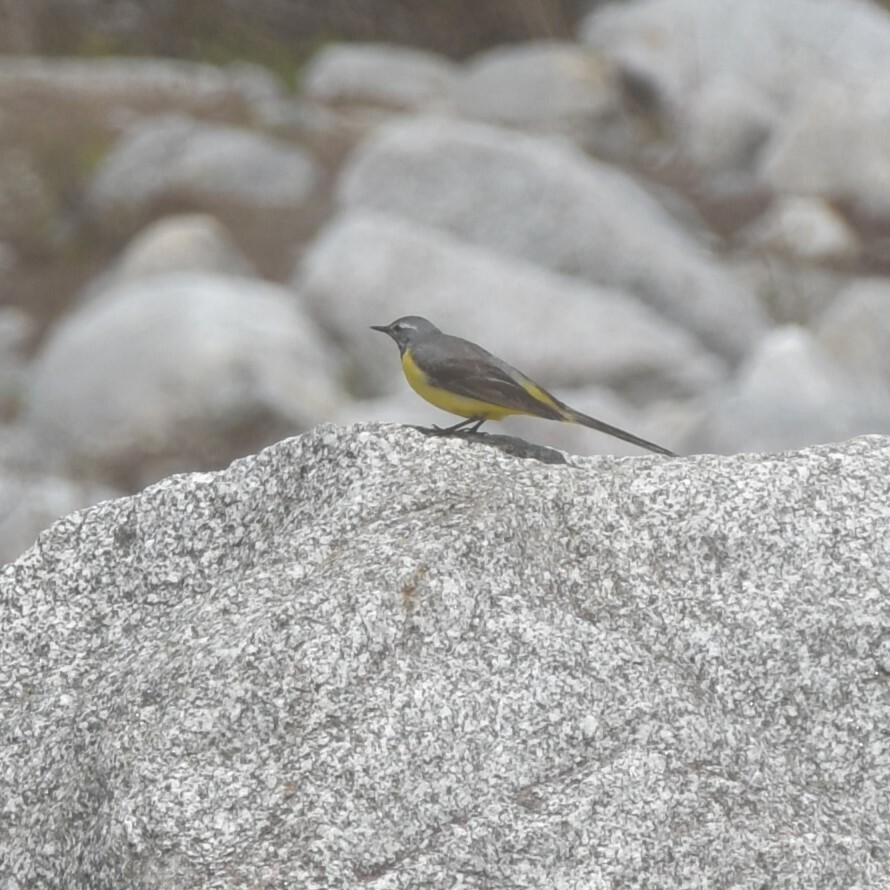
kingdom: Animalia
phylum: Chordata
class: Aves
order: Passeriformes
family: Motacillidae
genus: Motacilla
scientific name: Motacilla cinerea
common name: Grey wagtail
